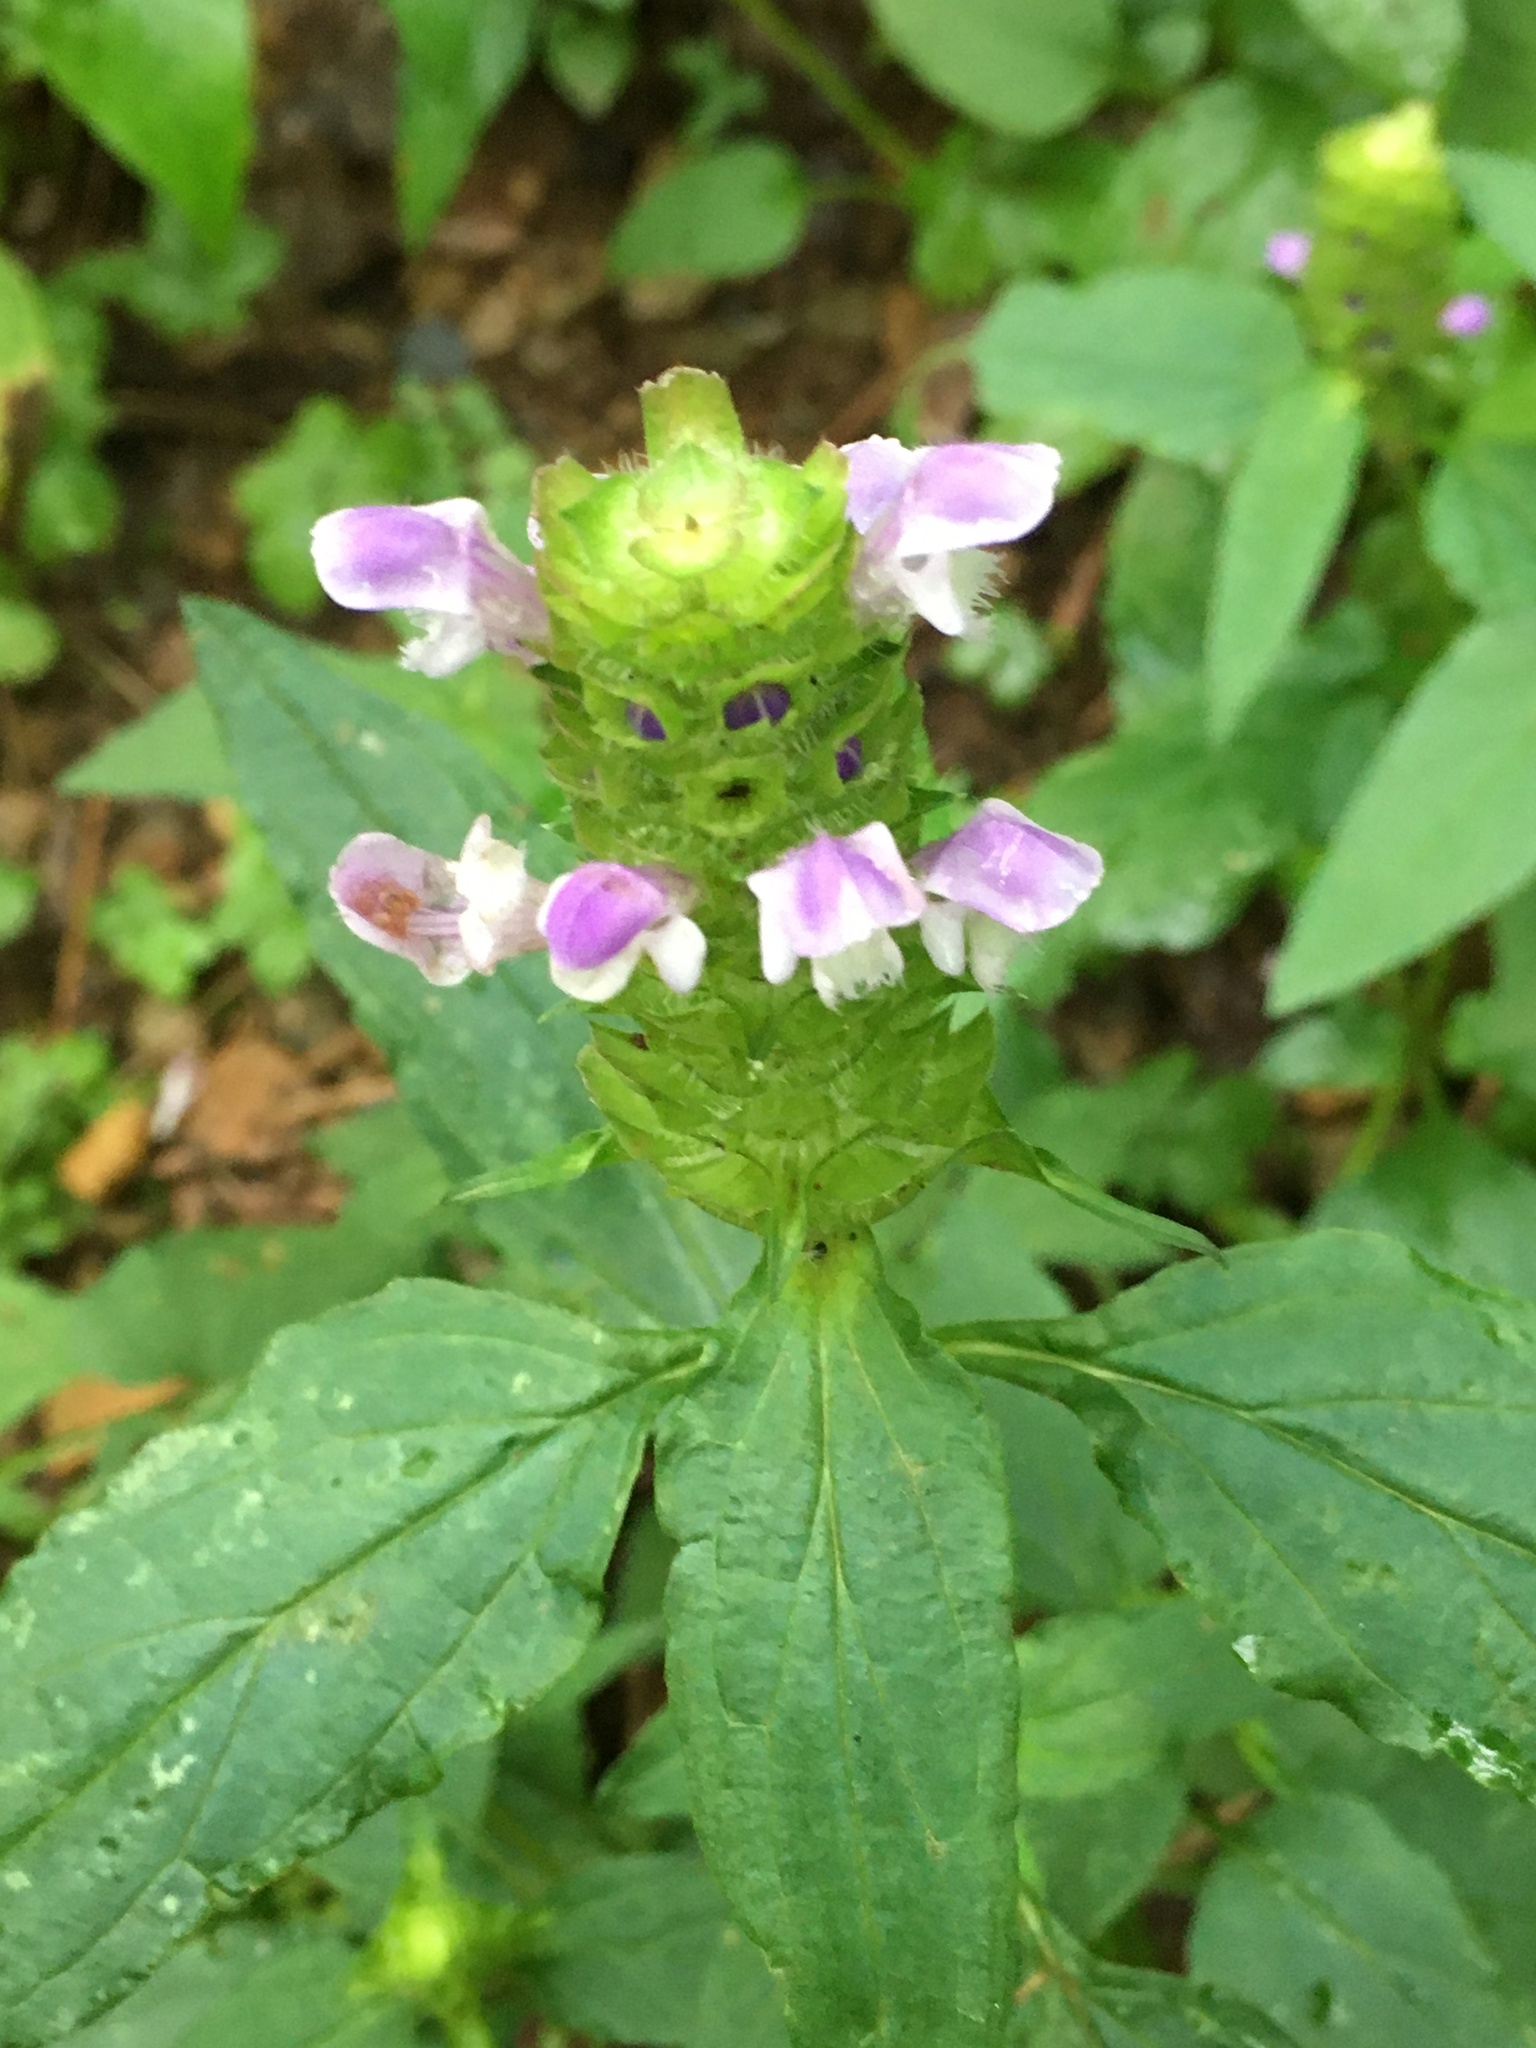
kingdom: Plantae
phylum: Tracheophyta
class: Magnoliopsida
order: Lamiales
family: Lamiaceae
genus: Prunella
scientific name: Prunella vulgaris
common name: Heal-all
